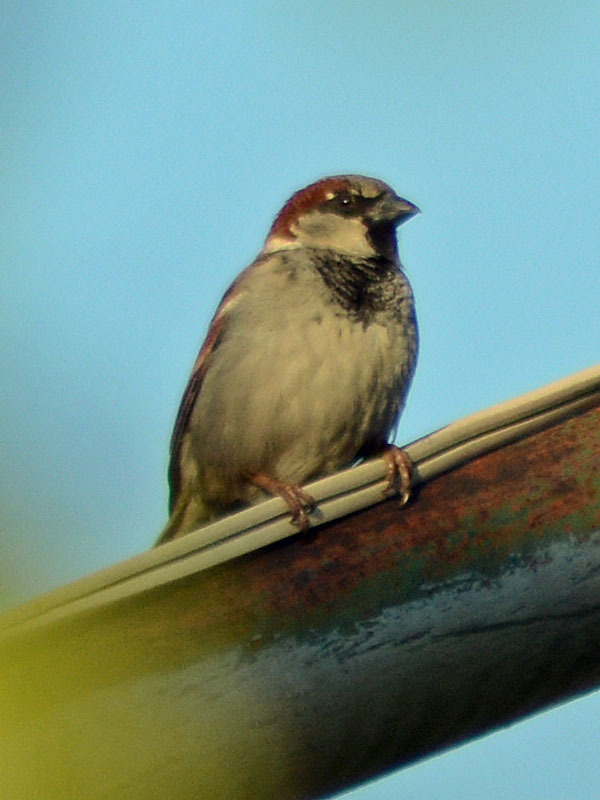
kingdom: Animalia
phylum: Chordata
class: Aves
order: Passeriformes
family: Passeridae
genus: Passer
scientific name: Passer domesticus
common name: House sparrow
